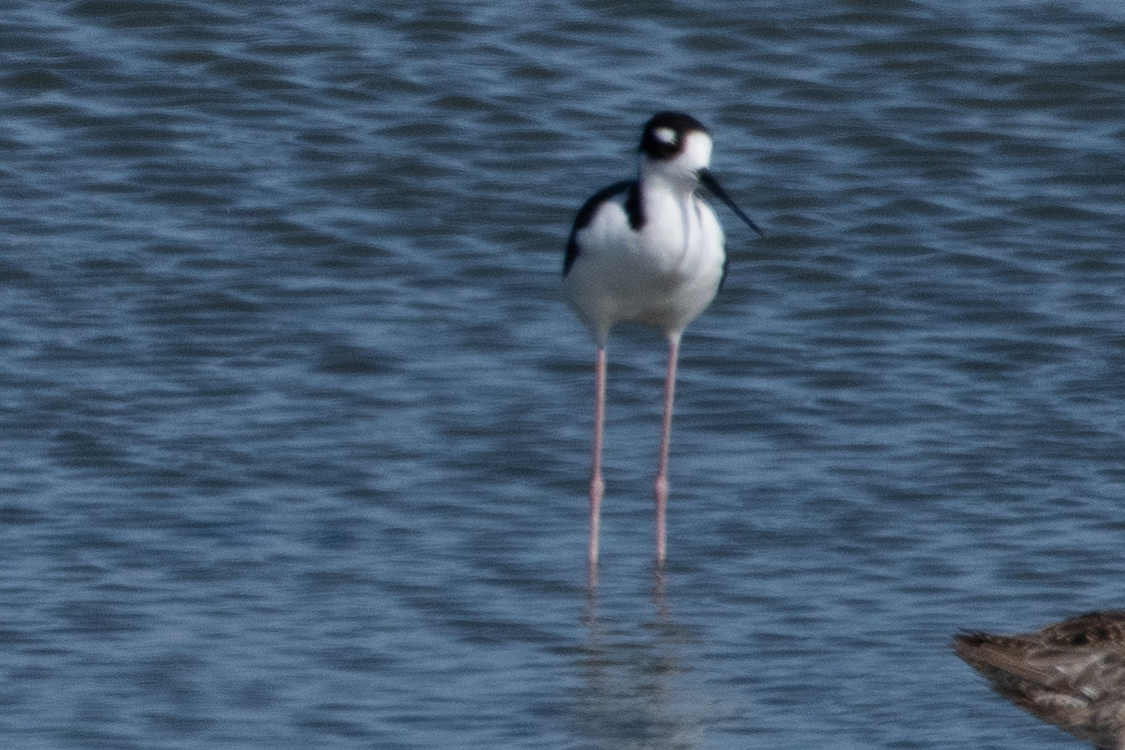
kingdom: Animalia
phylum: Chordata
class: Aves
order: Charadriiformes
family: Recurvirostridae
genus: Himantopus
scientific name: Himantopus mexicanus
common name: Black-necked stilt
